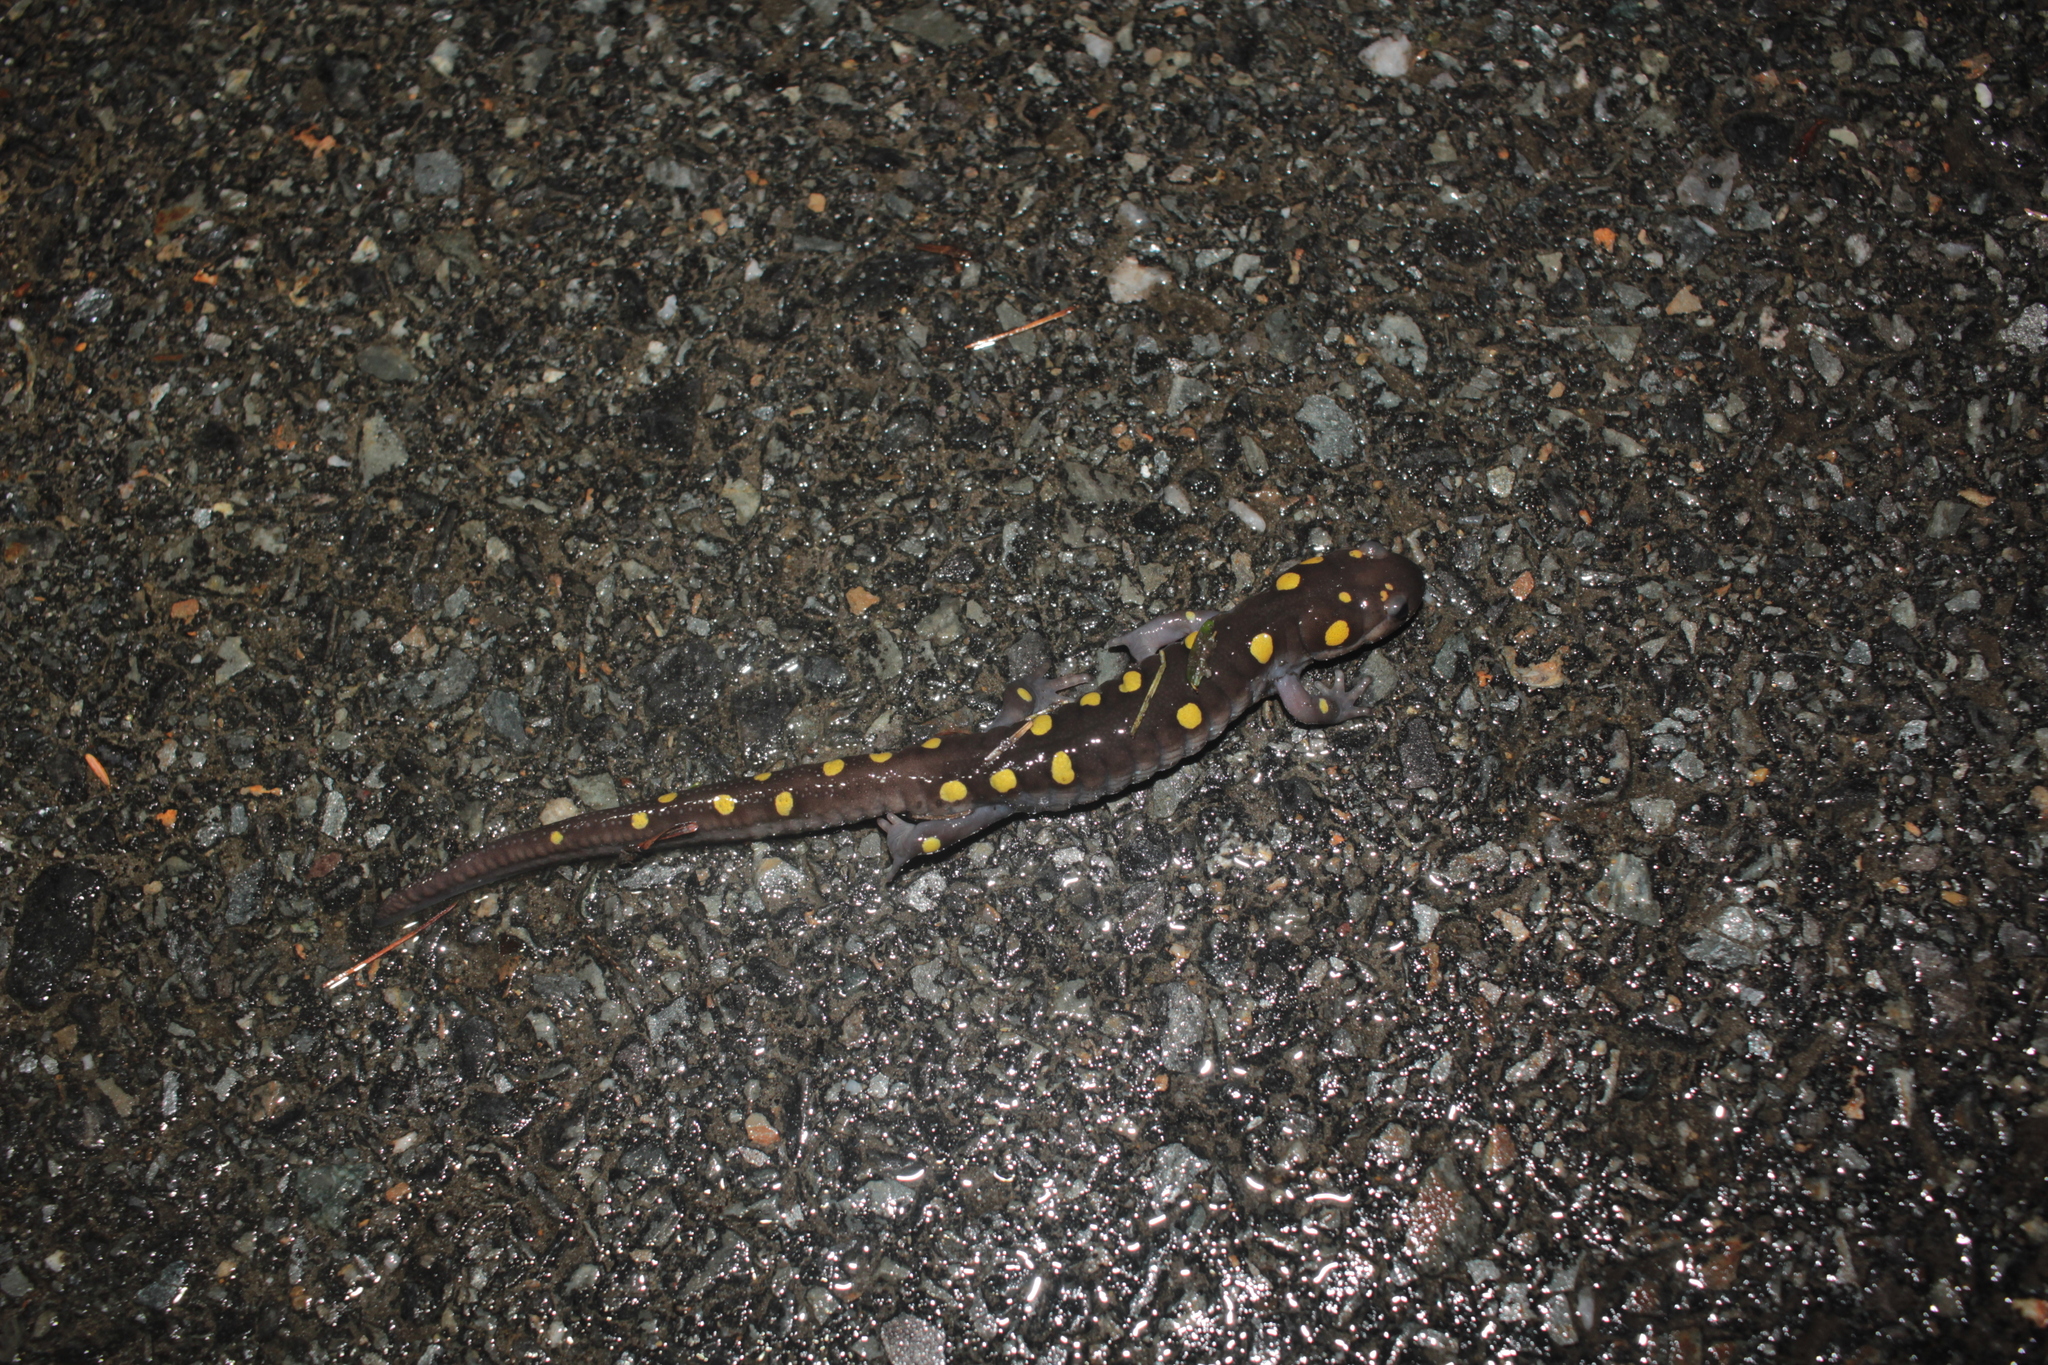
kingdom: Animalia
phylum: Chordata
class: Amphibia
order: Caudata
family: Ambystomatidae
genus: Ambystoma
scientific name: Ambystoma maculatum
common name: Spotted salamander
